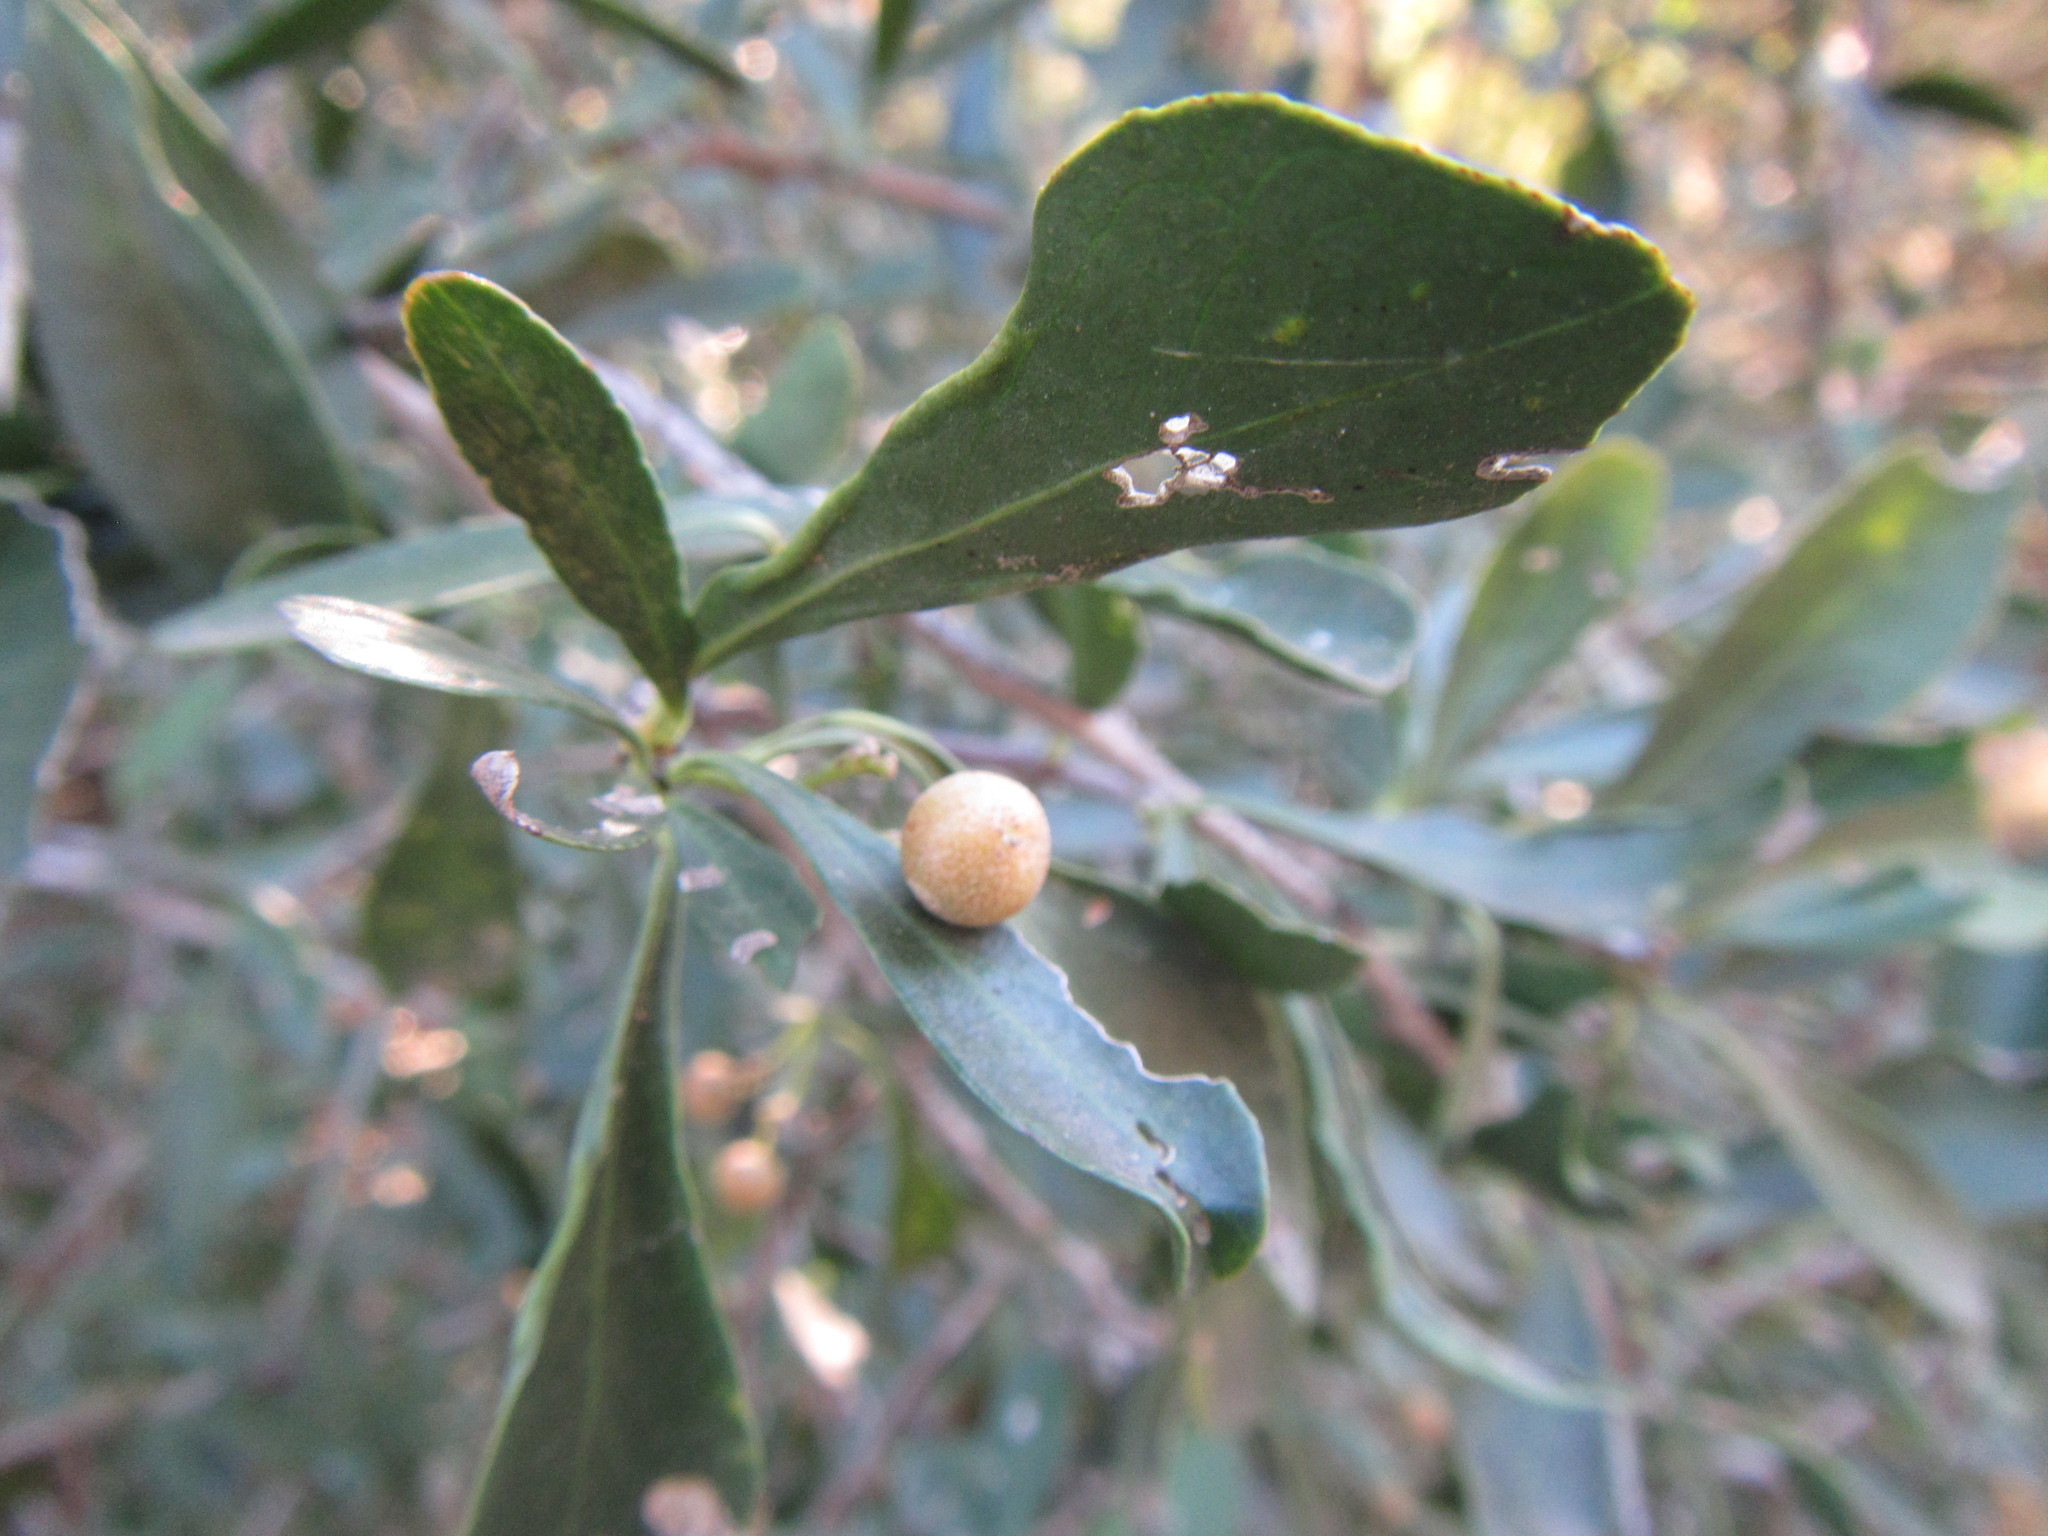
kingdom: Plantae
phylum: Tracheophyta
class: Magnoliopsida
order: Celastrales
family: Celastraceae
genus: Gymnosporia
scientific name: Gymnosporia buxifolia
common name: Common spike-thorn
